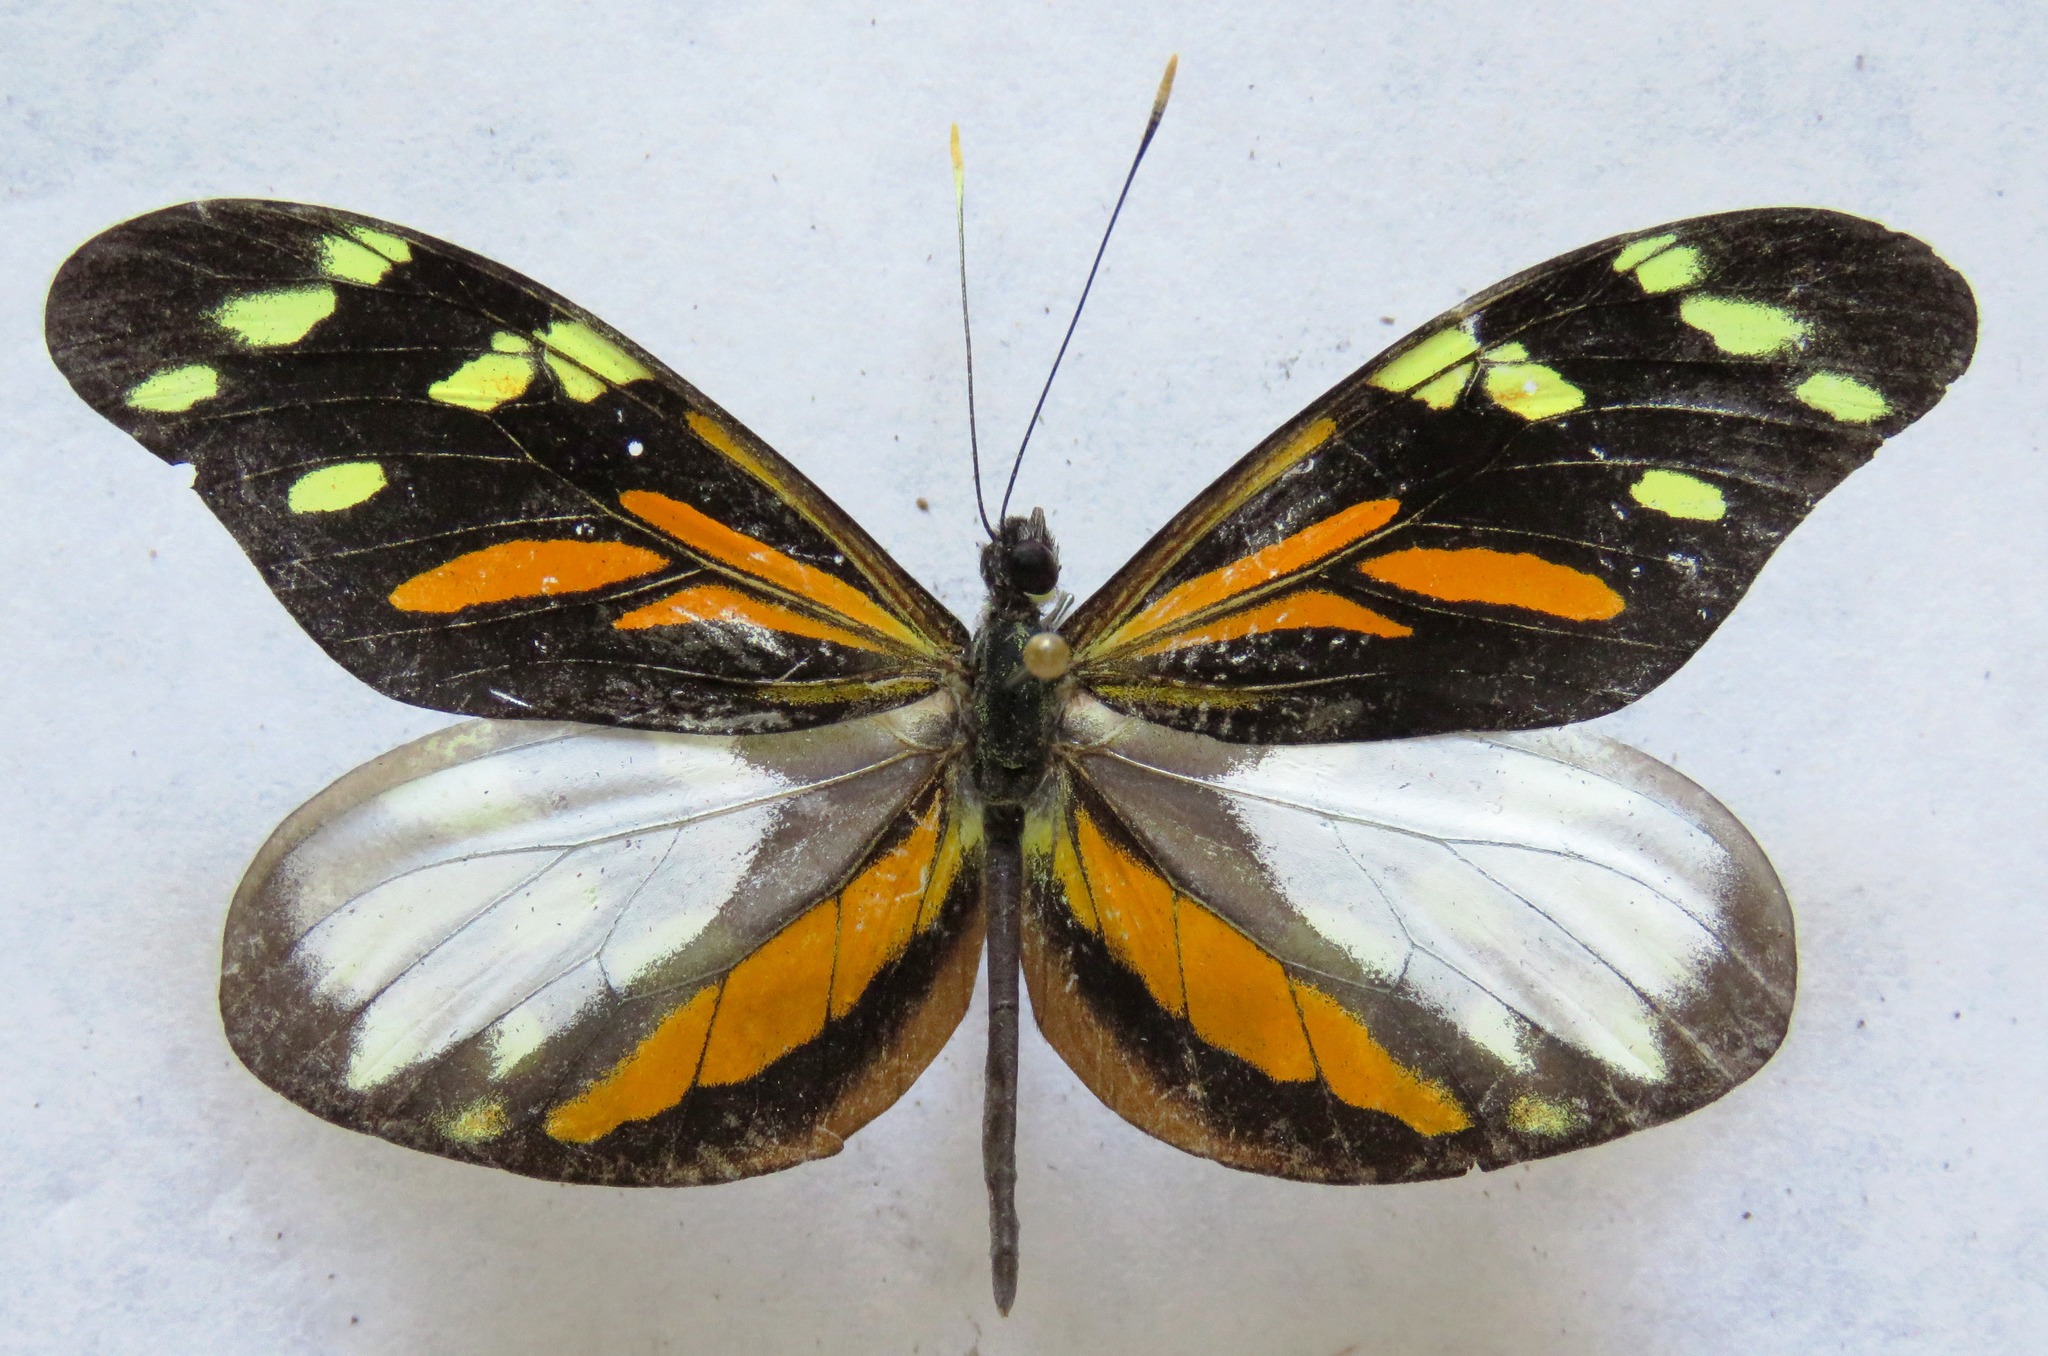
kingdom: Animalia
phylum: Arthropoda
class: Insecta
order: Lepidoptera
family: Pieridae
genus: Dismorphia
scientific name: Dismorphia amphione
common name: Tiger mimic-white
